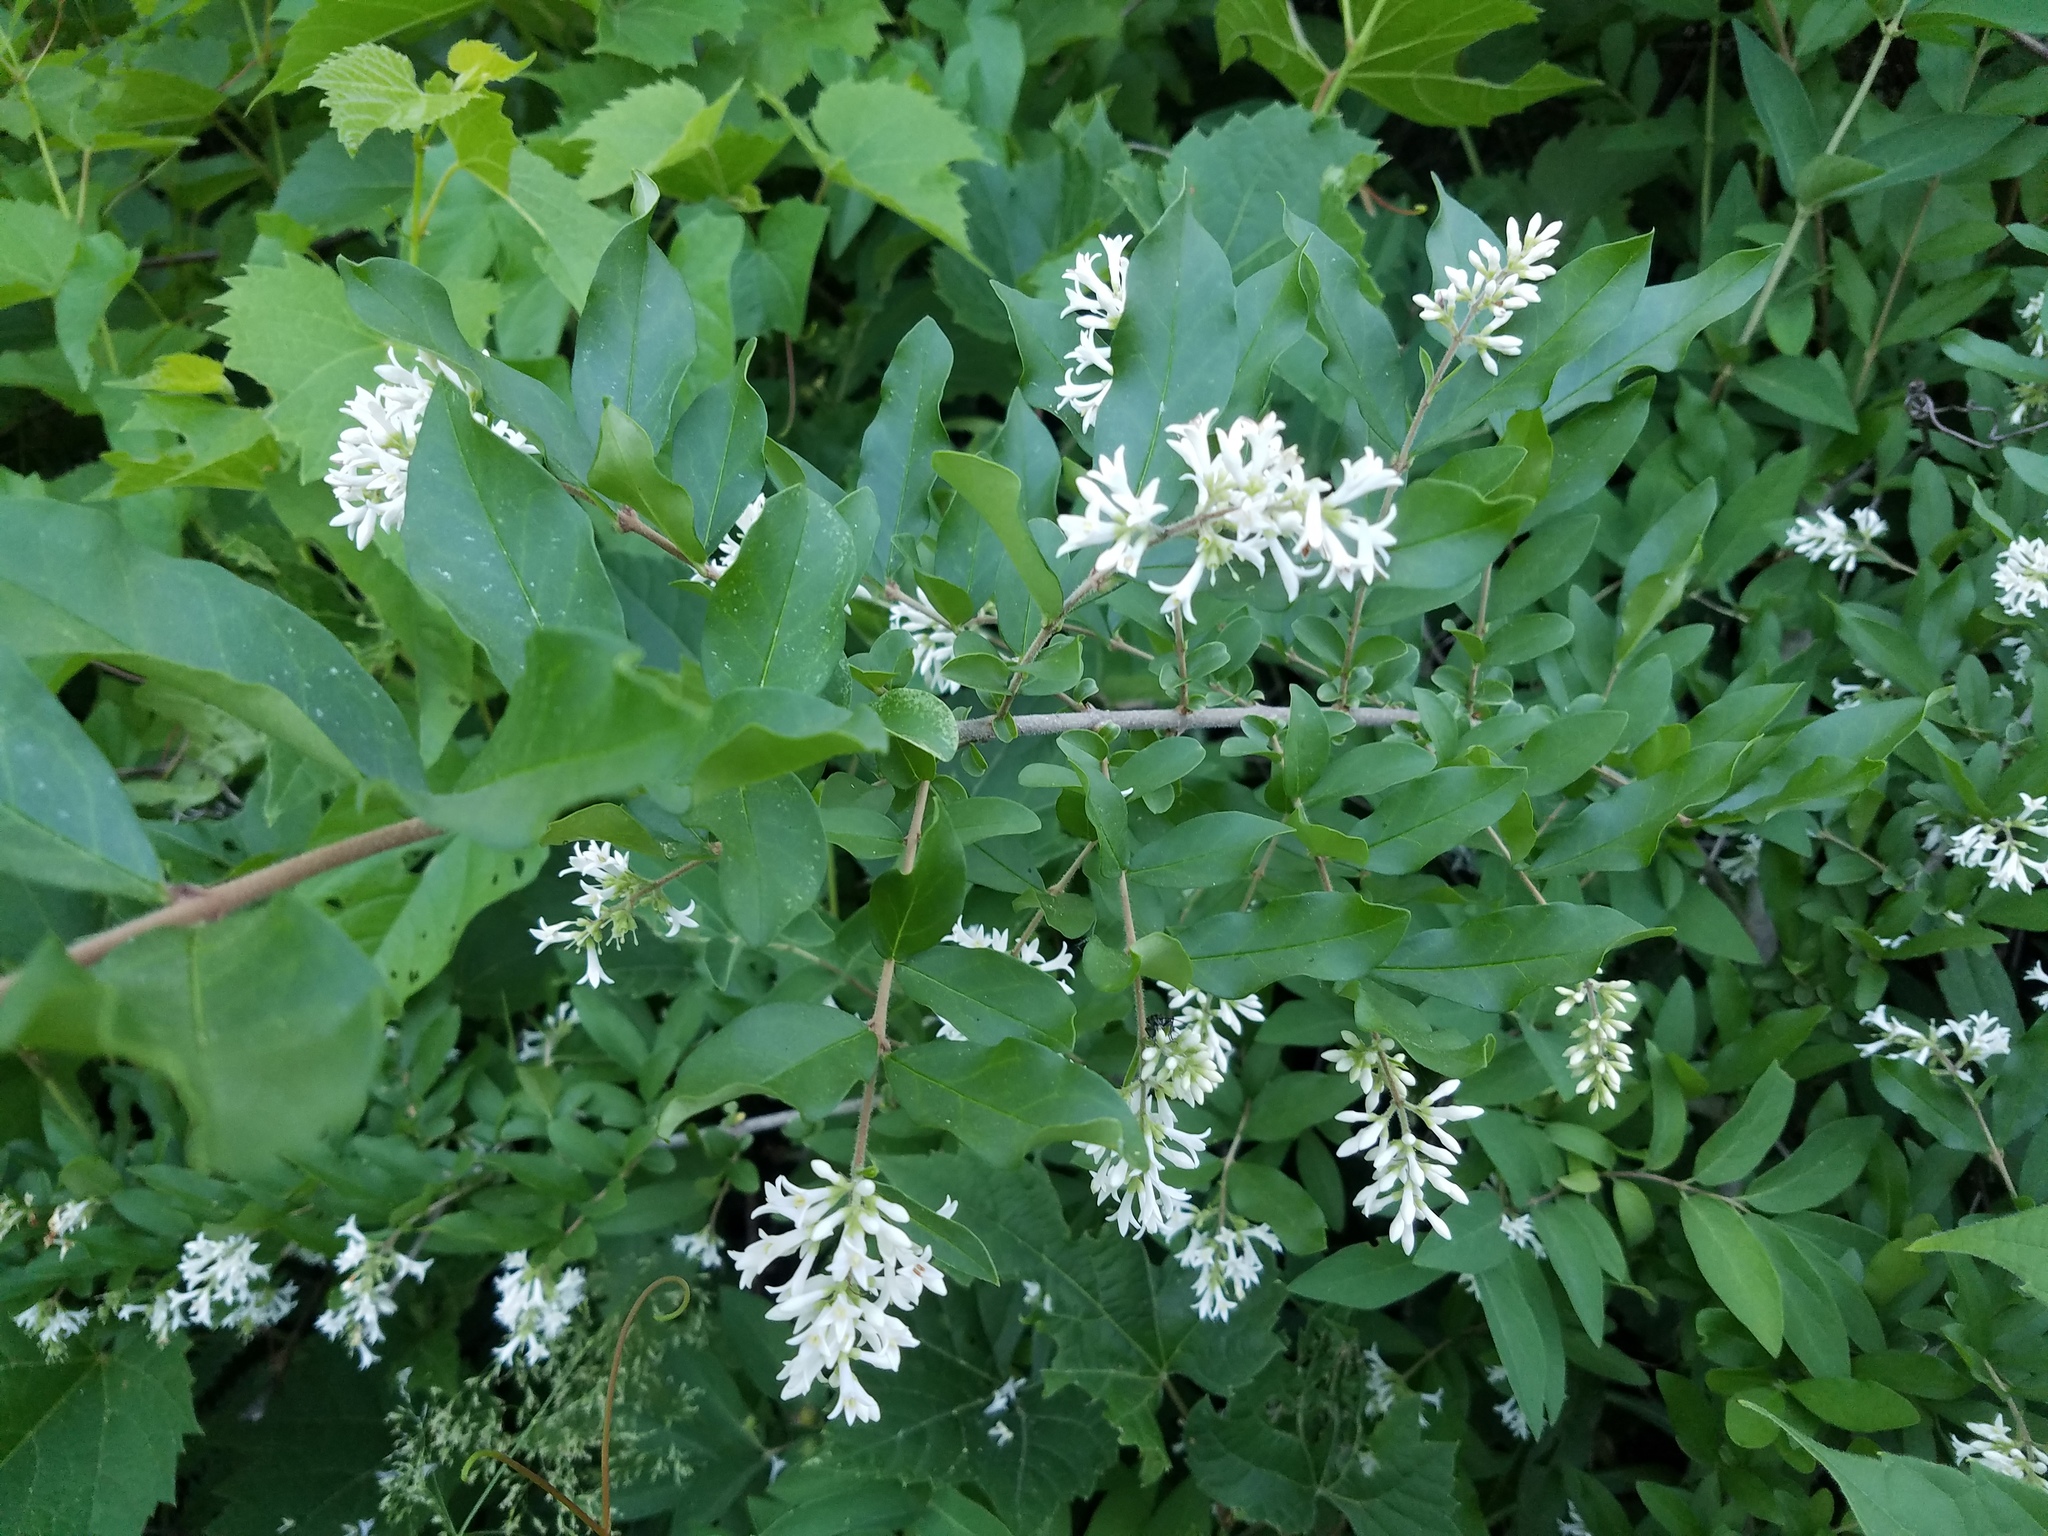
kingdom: Plantae
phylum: Tracheophyta
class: Magnoliopsida
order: Lamiales
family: Oleaceae
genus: Ligustrum
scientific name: Ligustrum obtusifolium
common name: Border privet
